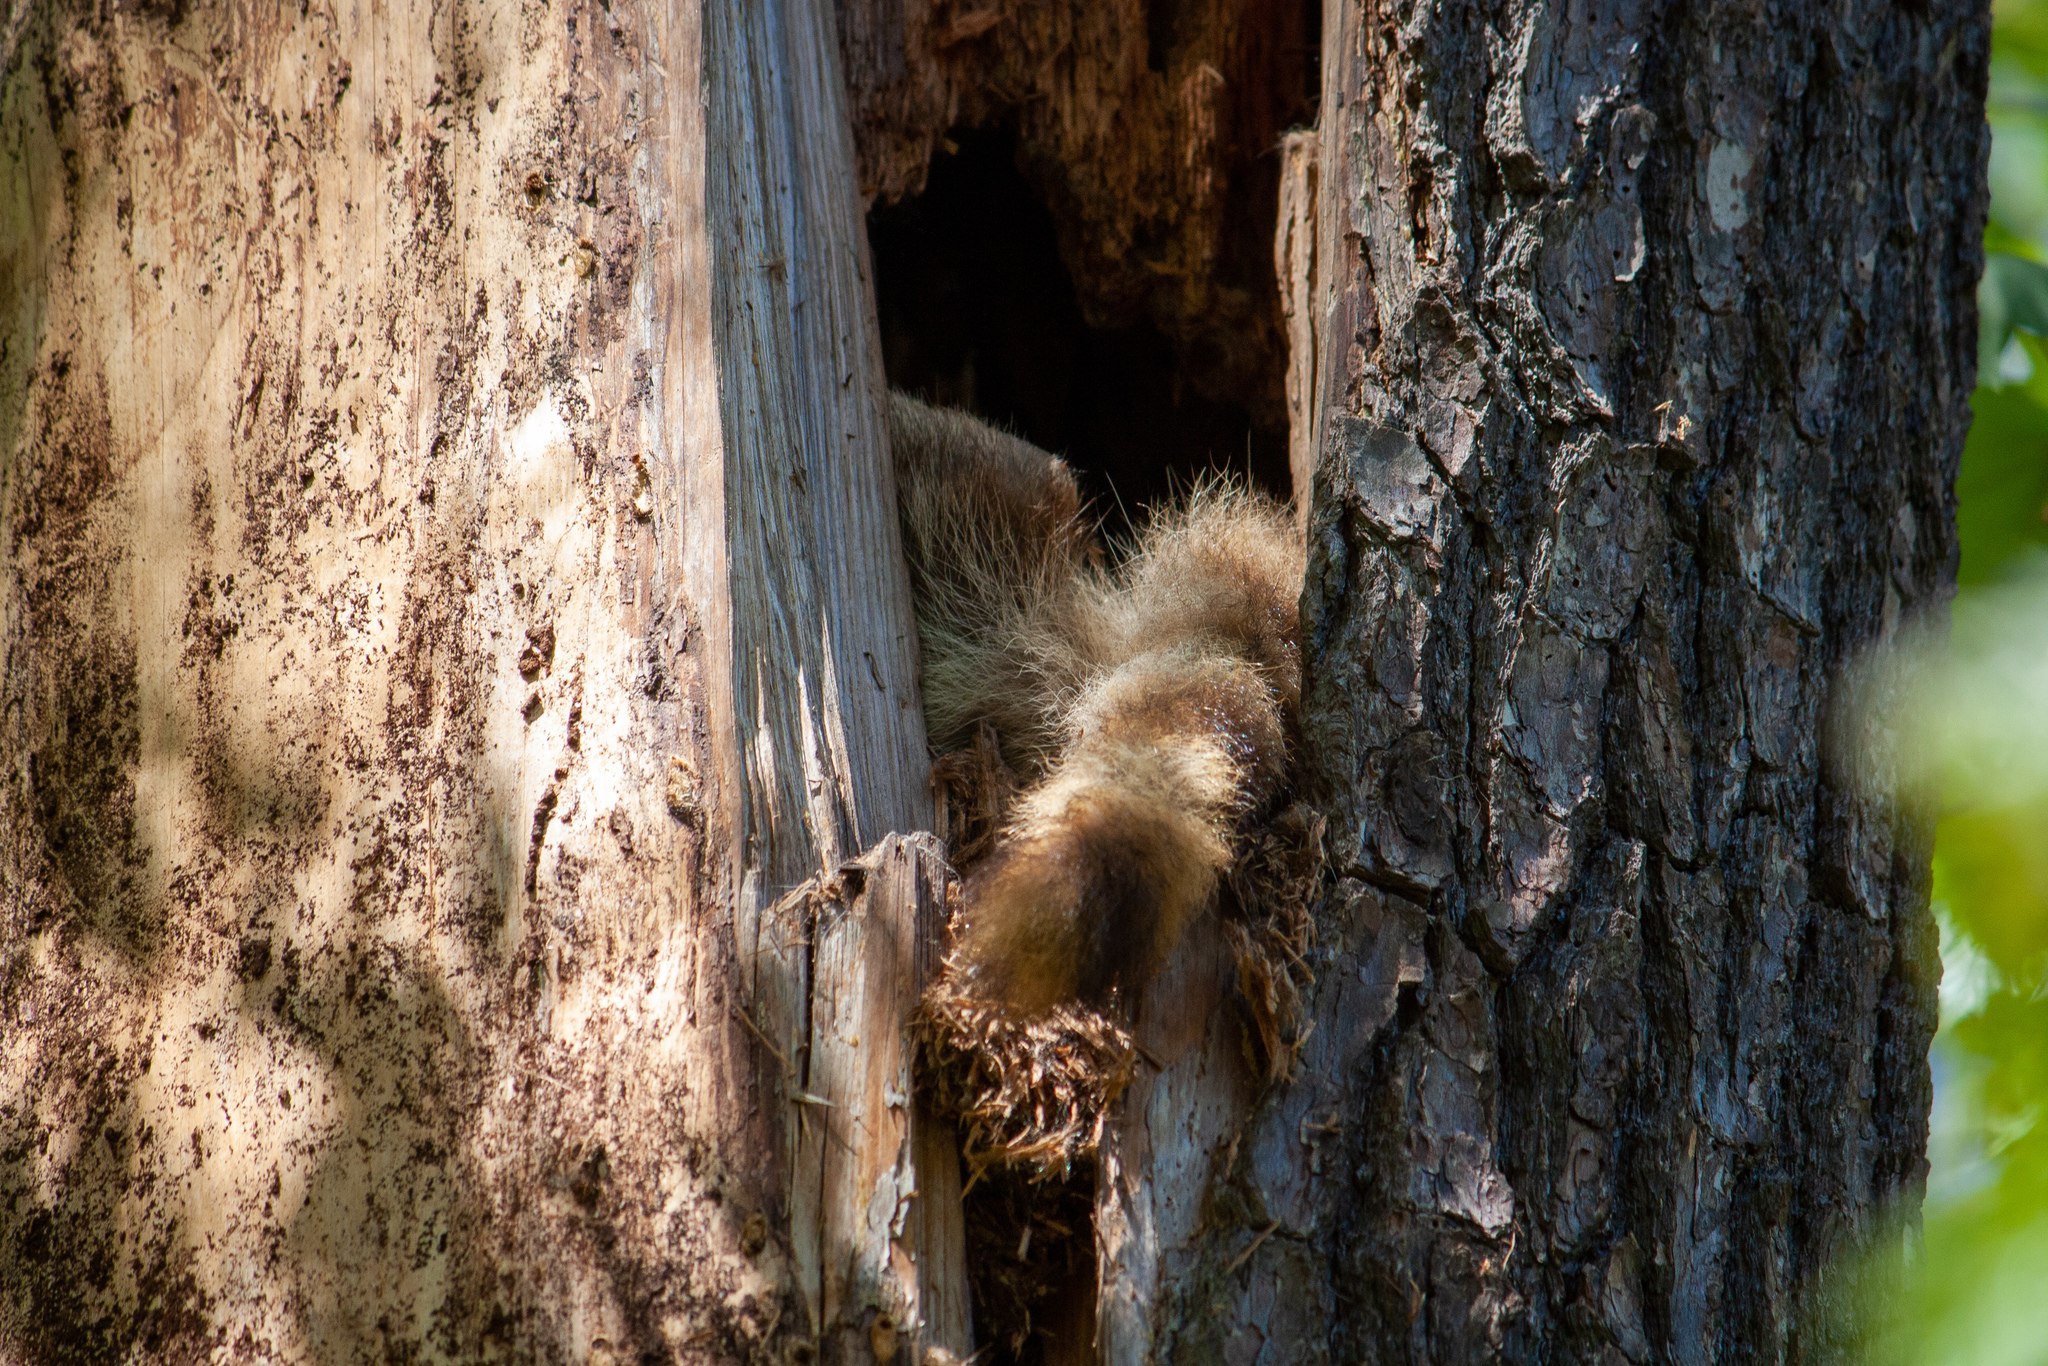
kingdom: Animalia
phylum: Chordata
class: Mammalia
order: Carnivora
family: Procyonidae
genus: Procyon
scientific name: Procyon lotor
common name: Raccoon
